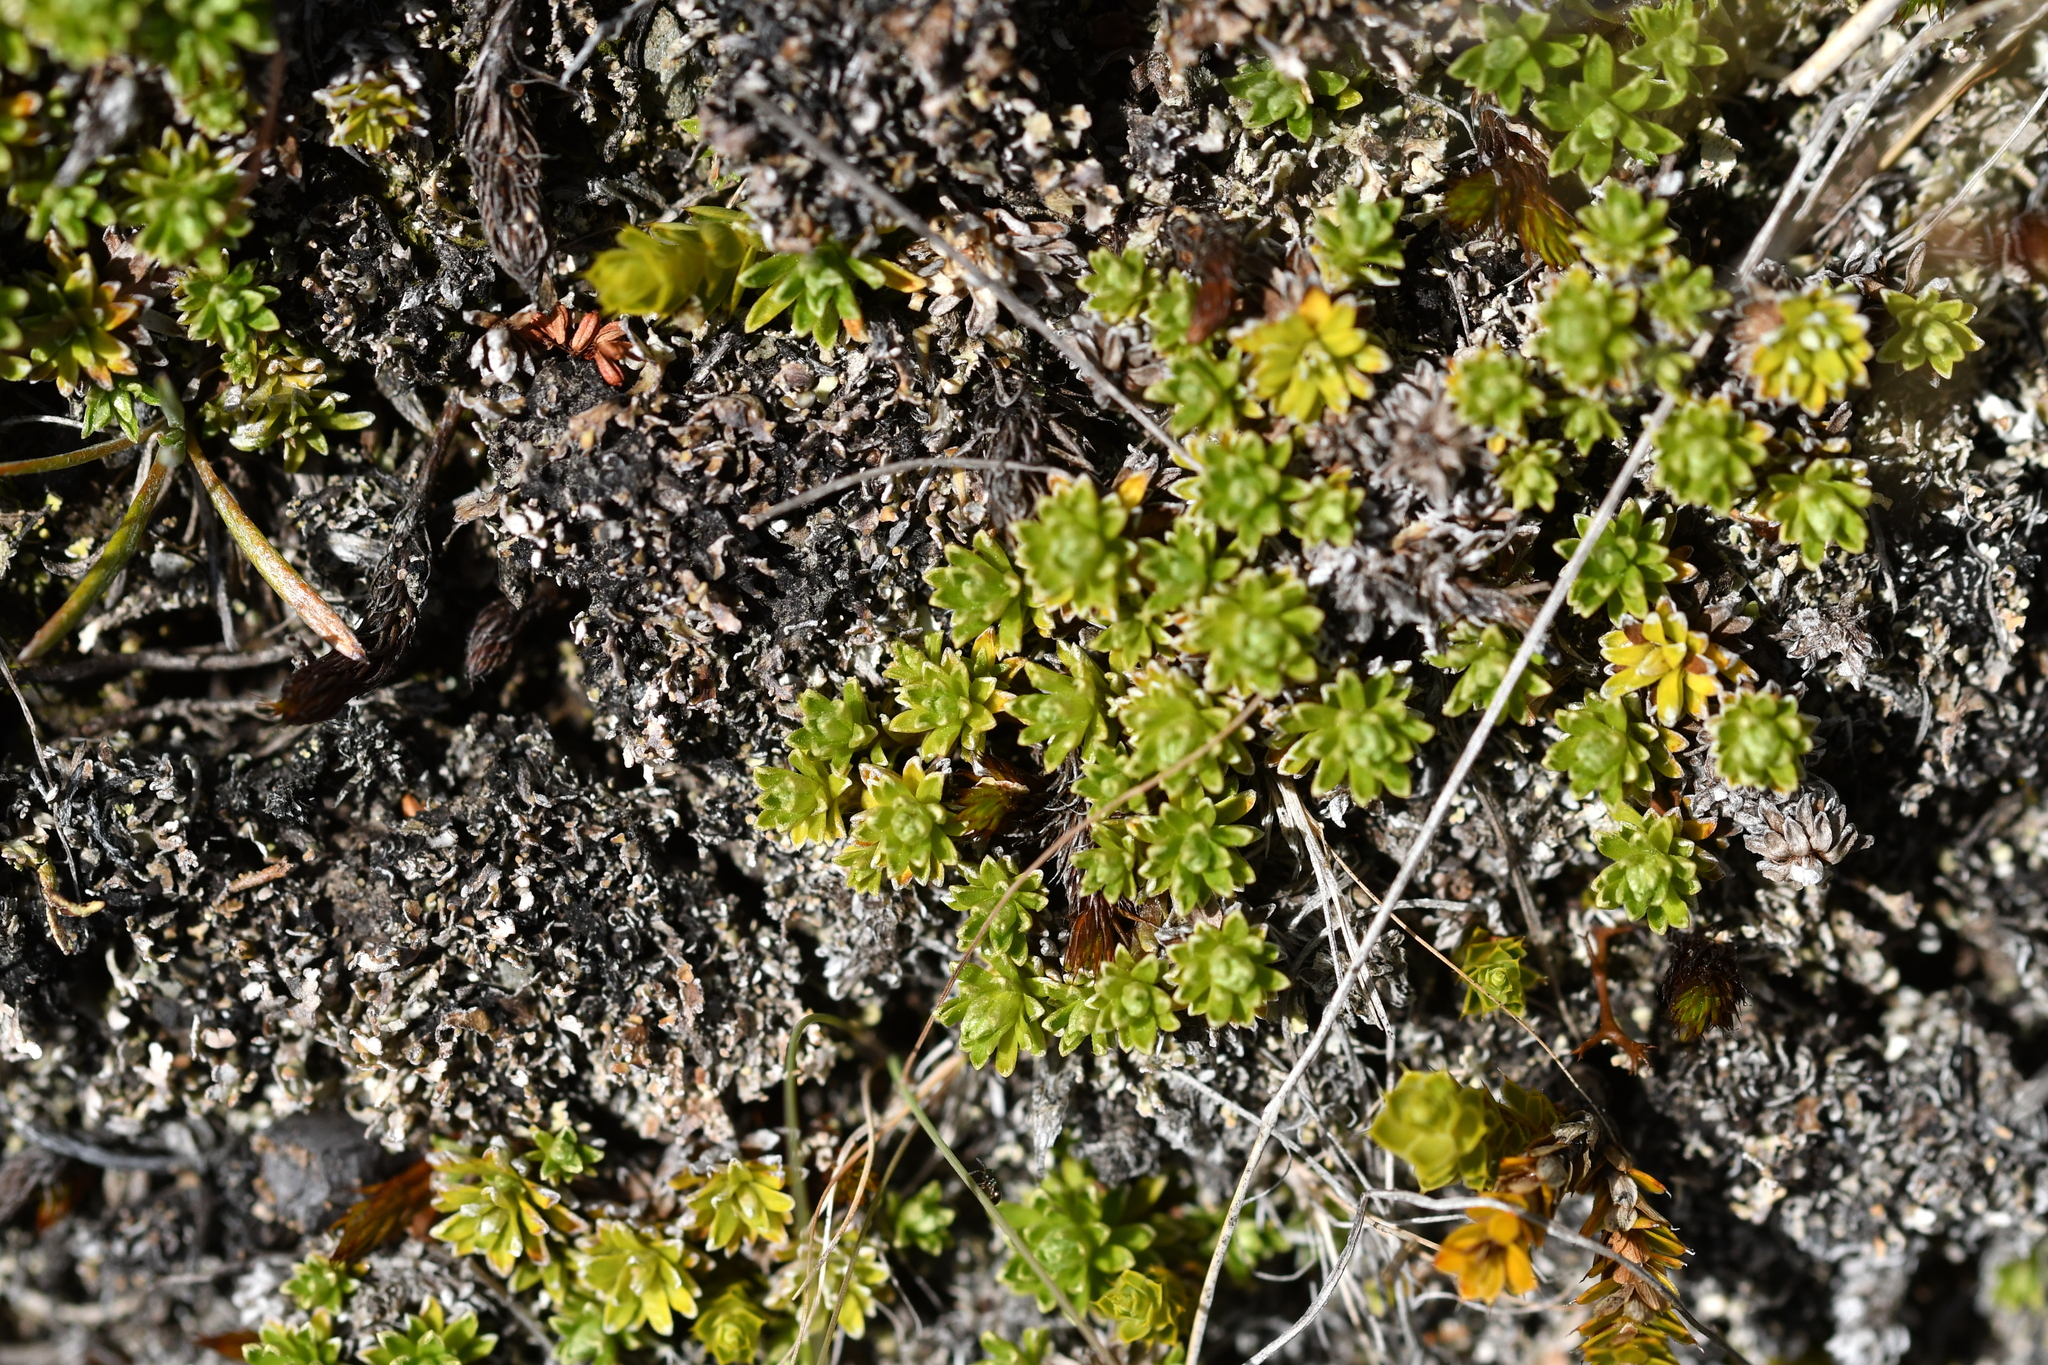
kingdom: Plantae
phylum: Tracheophyta
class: Magnoliopsida
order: Asterales
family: Asteraceae
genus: Raoulia
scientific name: Raoulia subsericea
